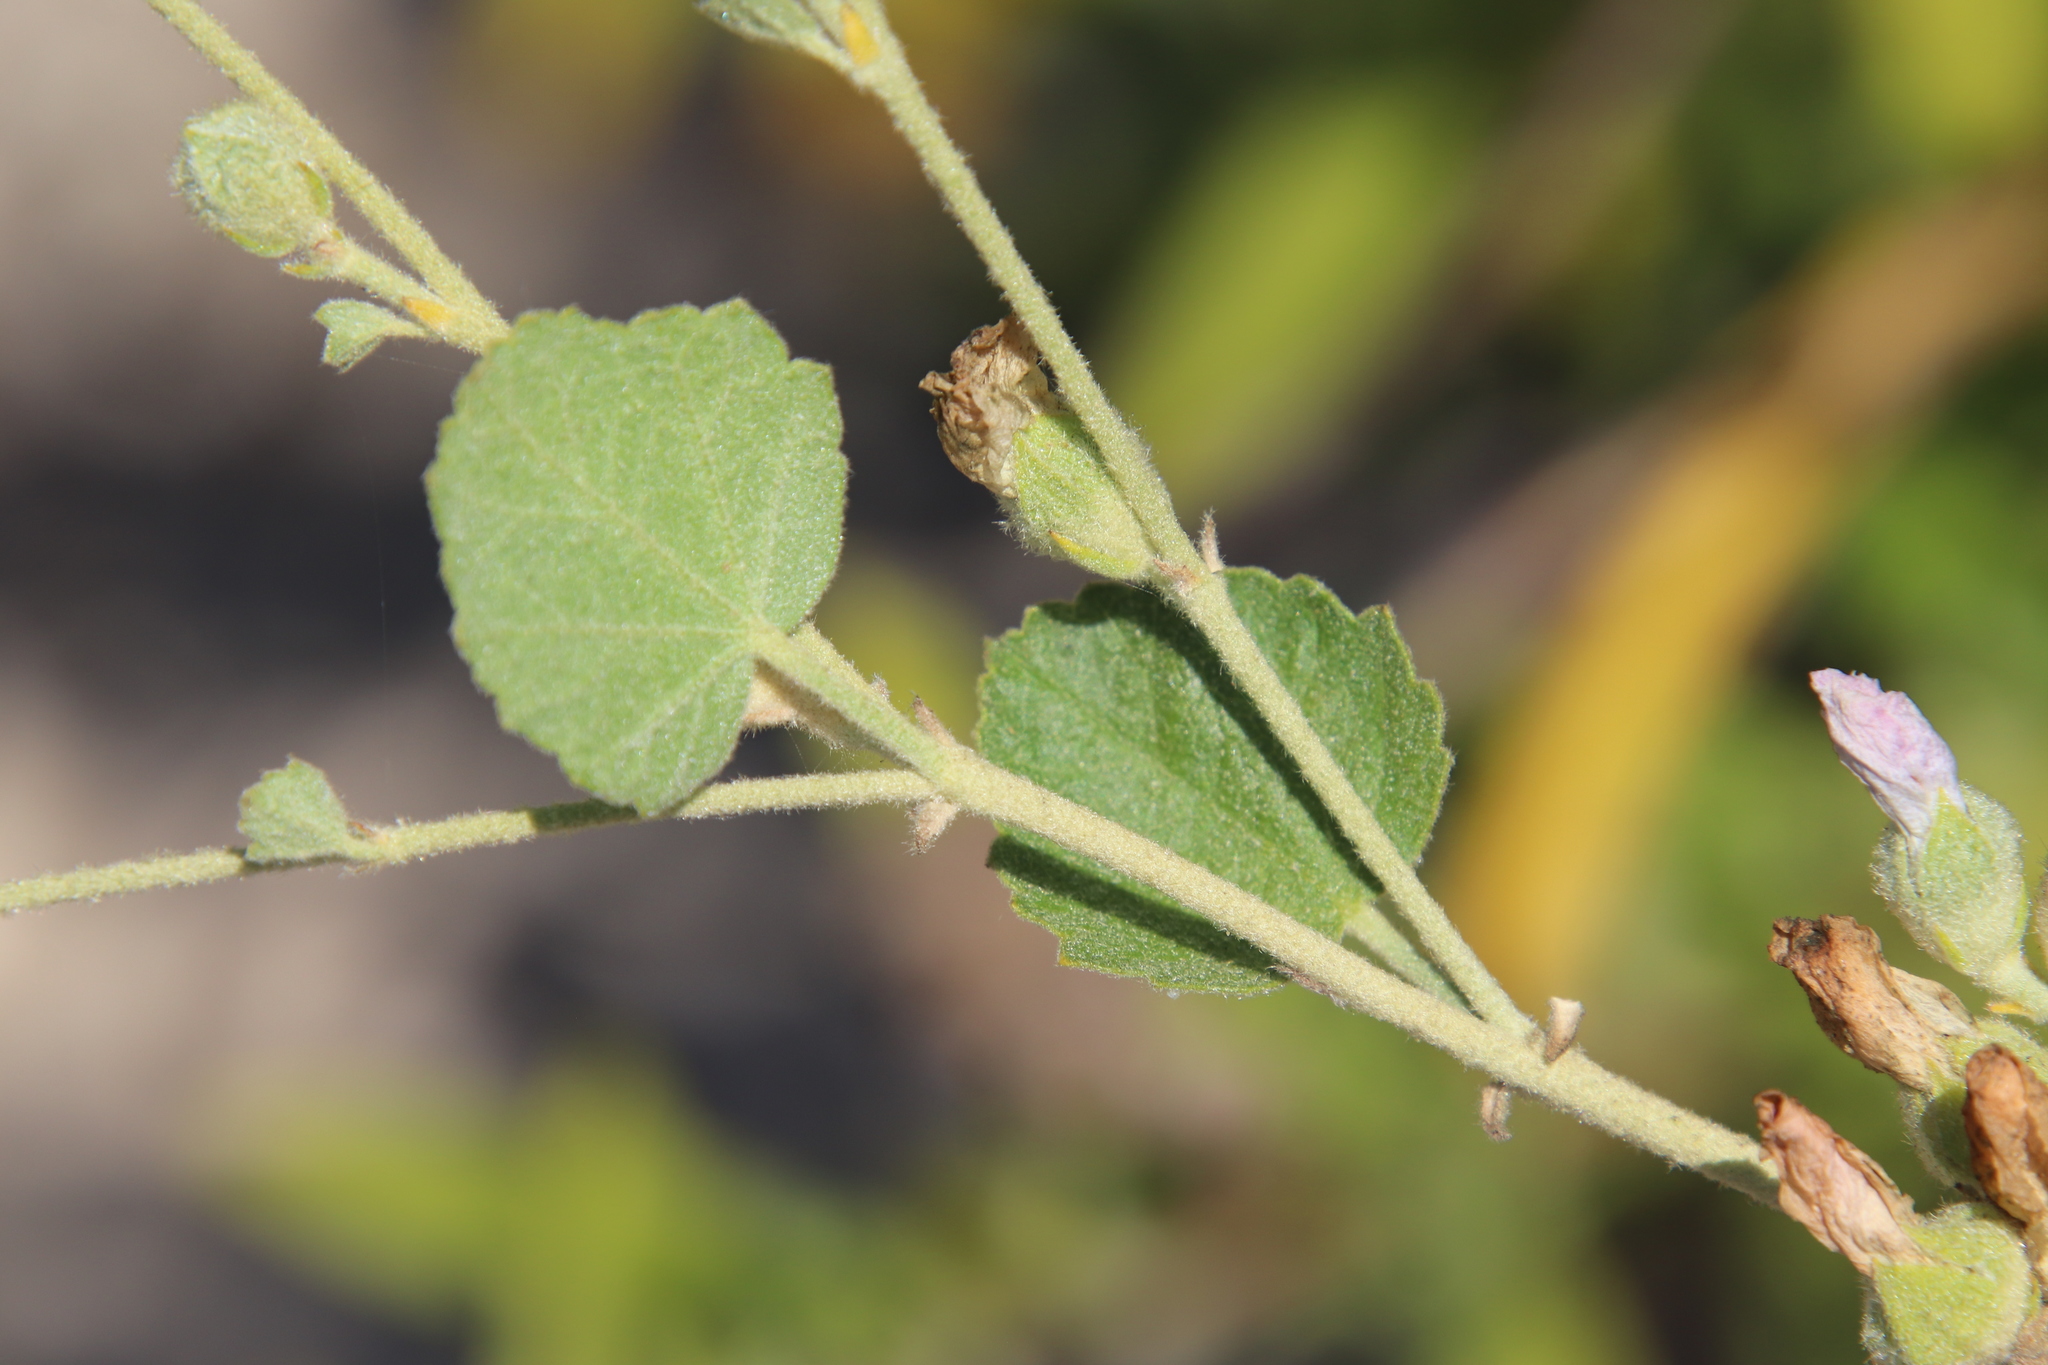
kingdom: Plantae
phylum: Tracheophyta
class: Magnoliopsida
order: Malvales
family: Malvaceae
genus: Malacothamnus
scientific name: Malacothamnus fasciculatus
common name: Sant cruz island bush-mallow
